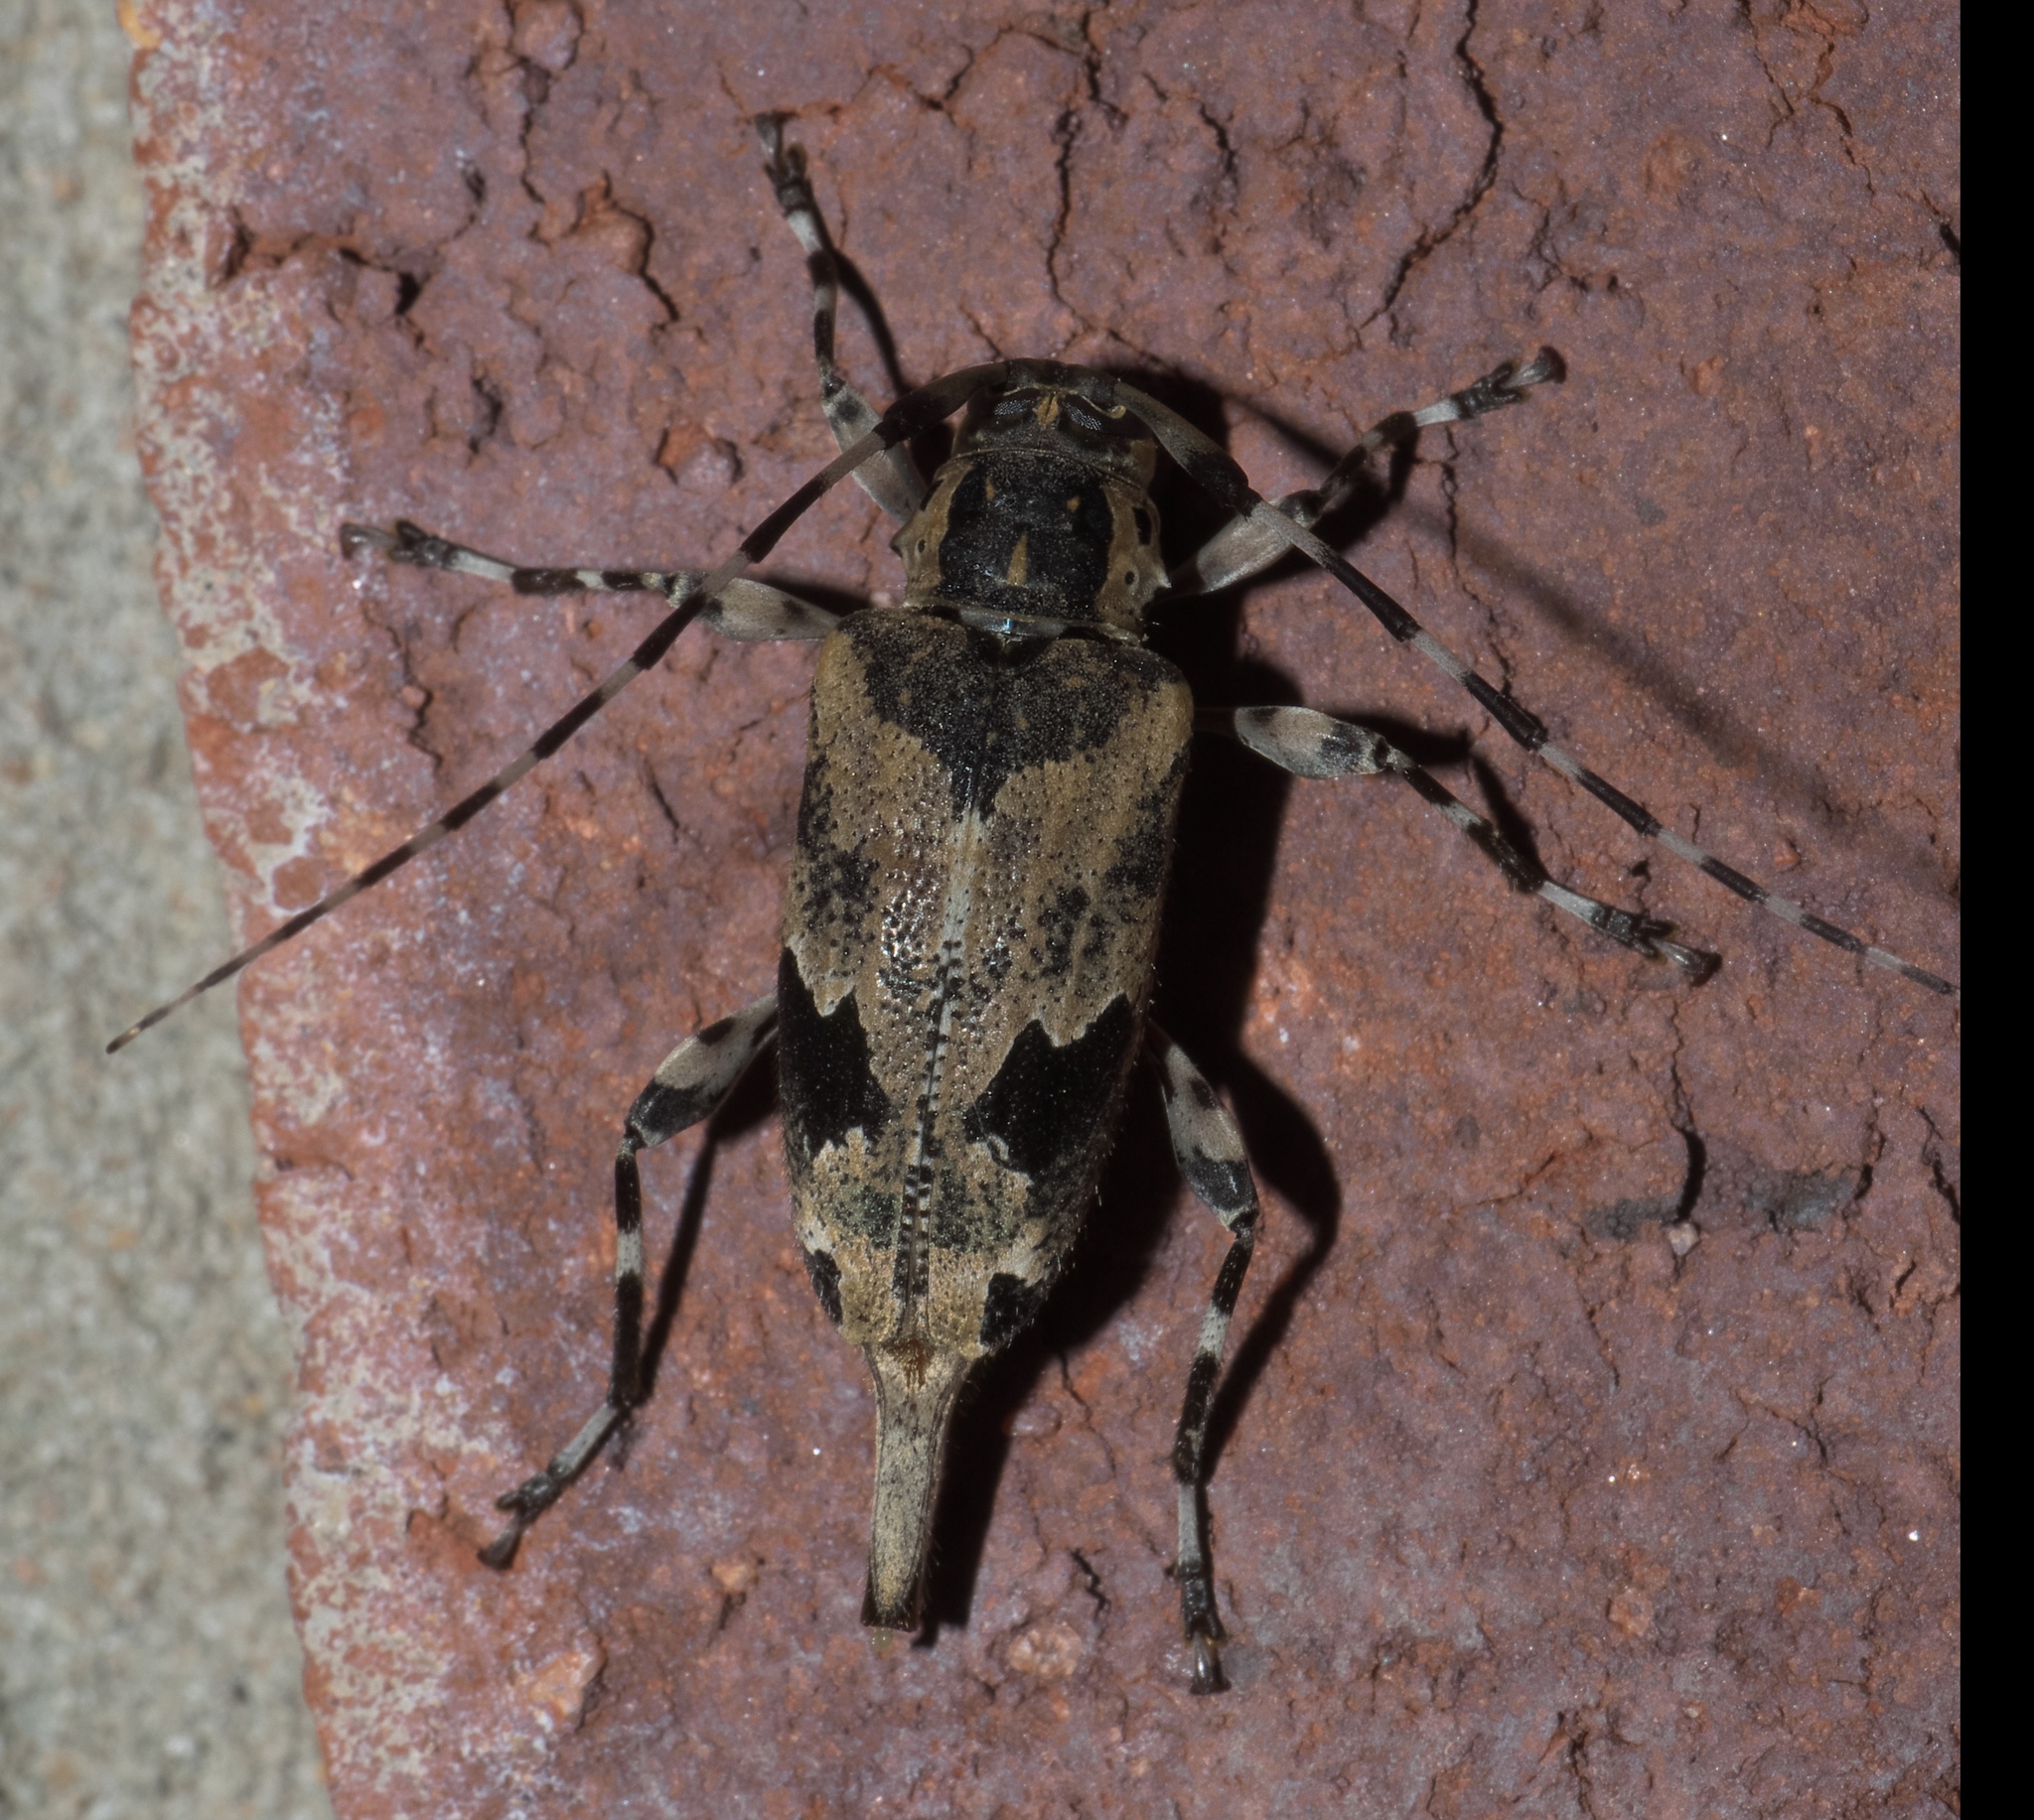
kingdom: Animalia
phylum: Arthropoda
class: Insecta
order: Coleoptera
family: Cerambycidae
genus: Graphisurus
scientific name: Graphisurus triangulifer
